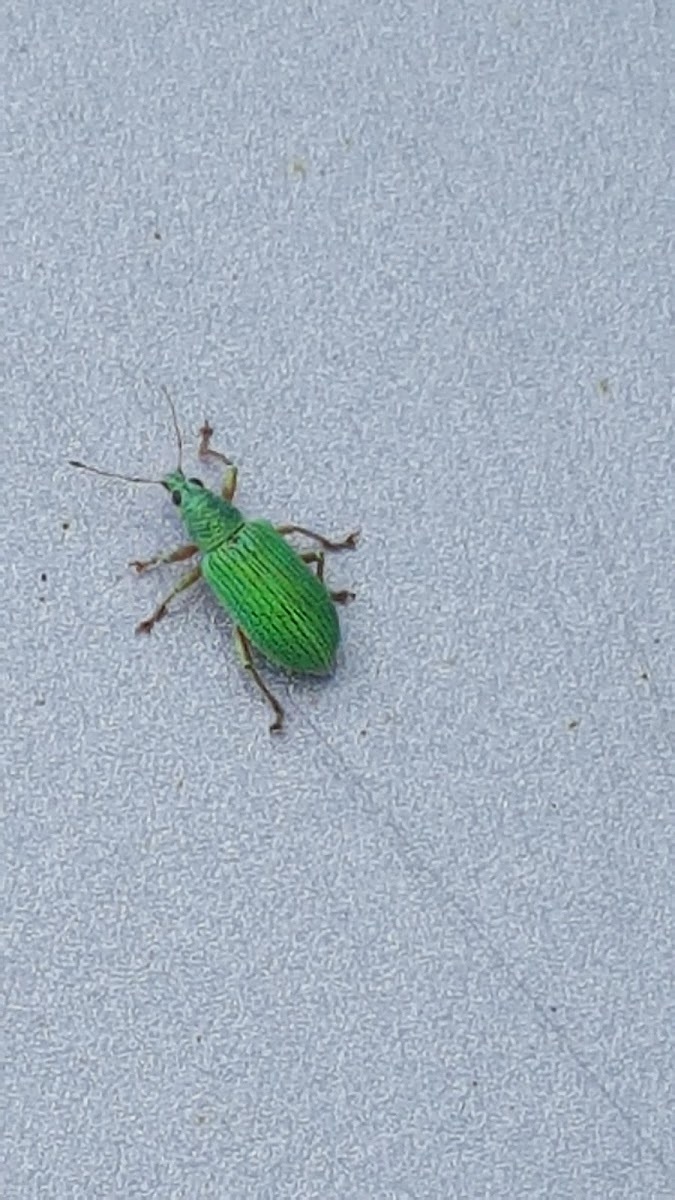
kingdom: Animalia
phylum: Arthropoda
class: Insecta
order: Coleoptera
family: Curculionidae
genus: Polydrusus
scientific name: Polydrusus formosus
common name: Weevil
